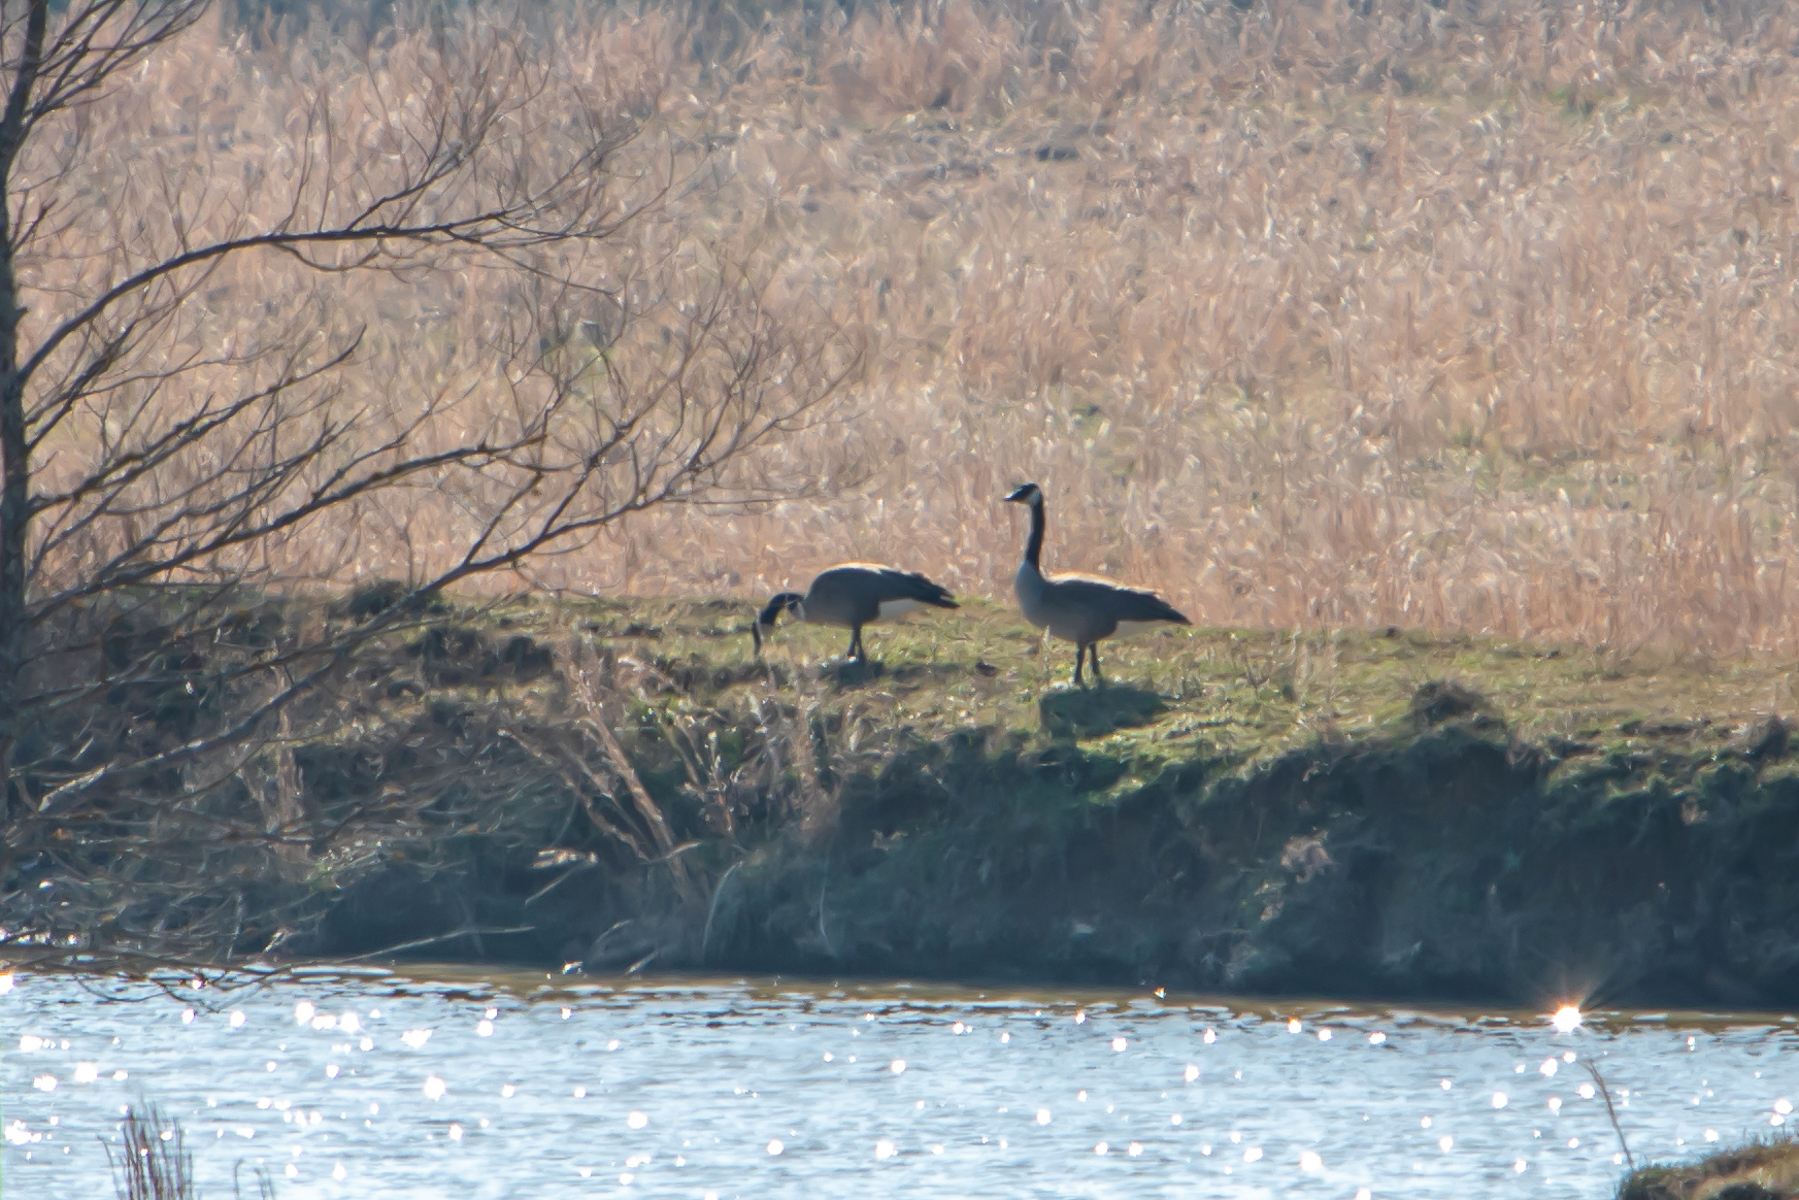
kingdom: Animalia
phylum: Chordata
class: Aves
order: Anseriformes
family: Anatidae
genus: Branta
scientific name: Branta canadensis
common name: Canada goose
